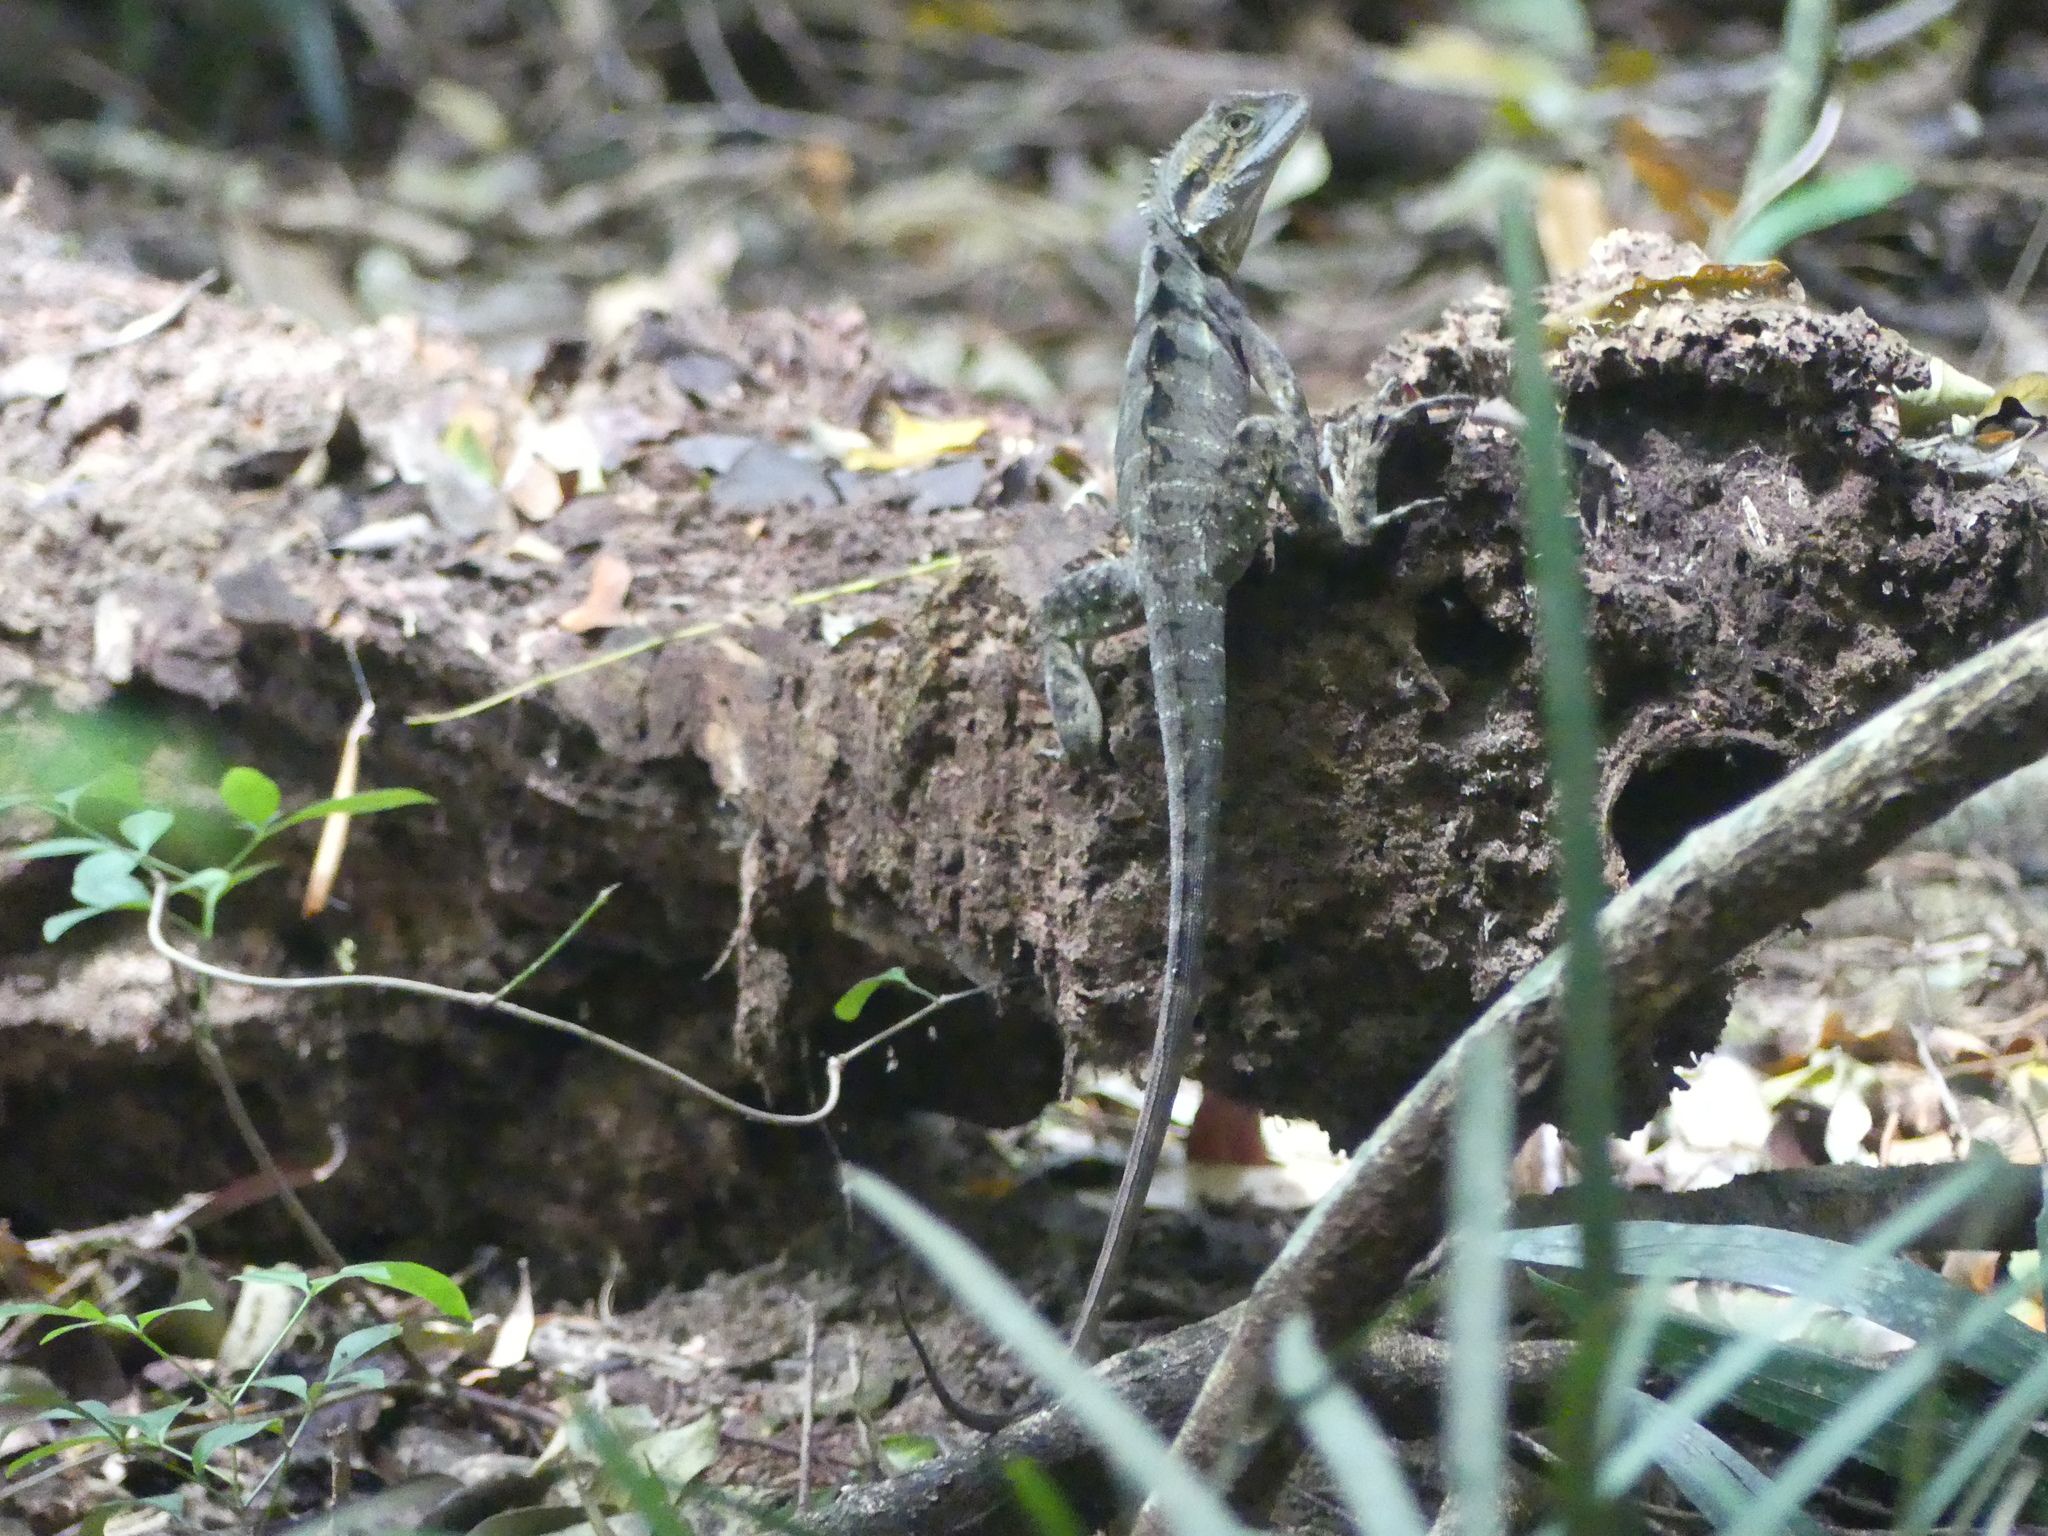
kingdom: Animalia
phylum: Chordata
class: Squamata
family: Agamidae
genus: Intellagama
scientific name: Intellagama lesueurii
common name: Eastern water dragon
